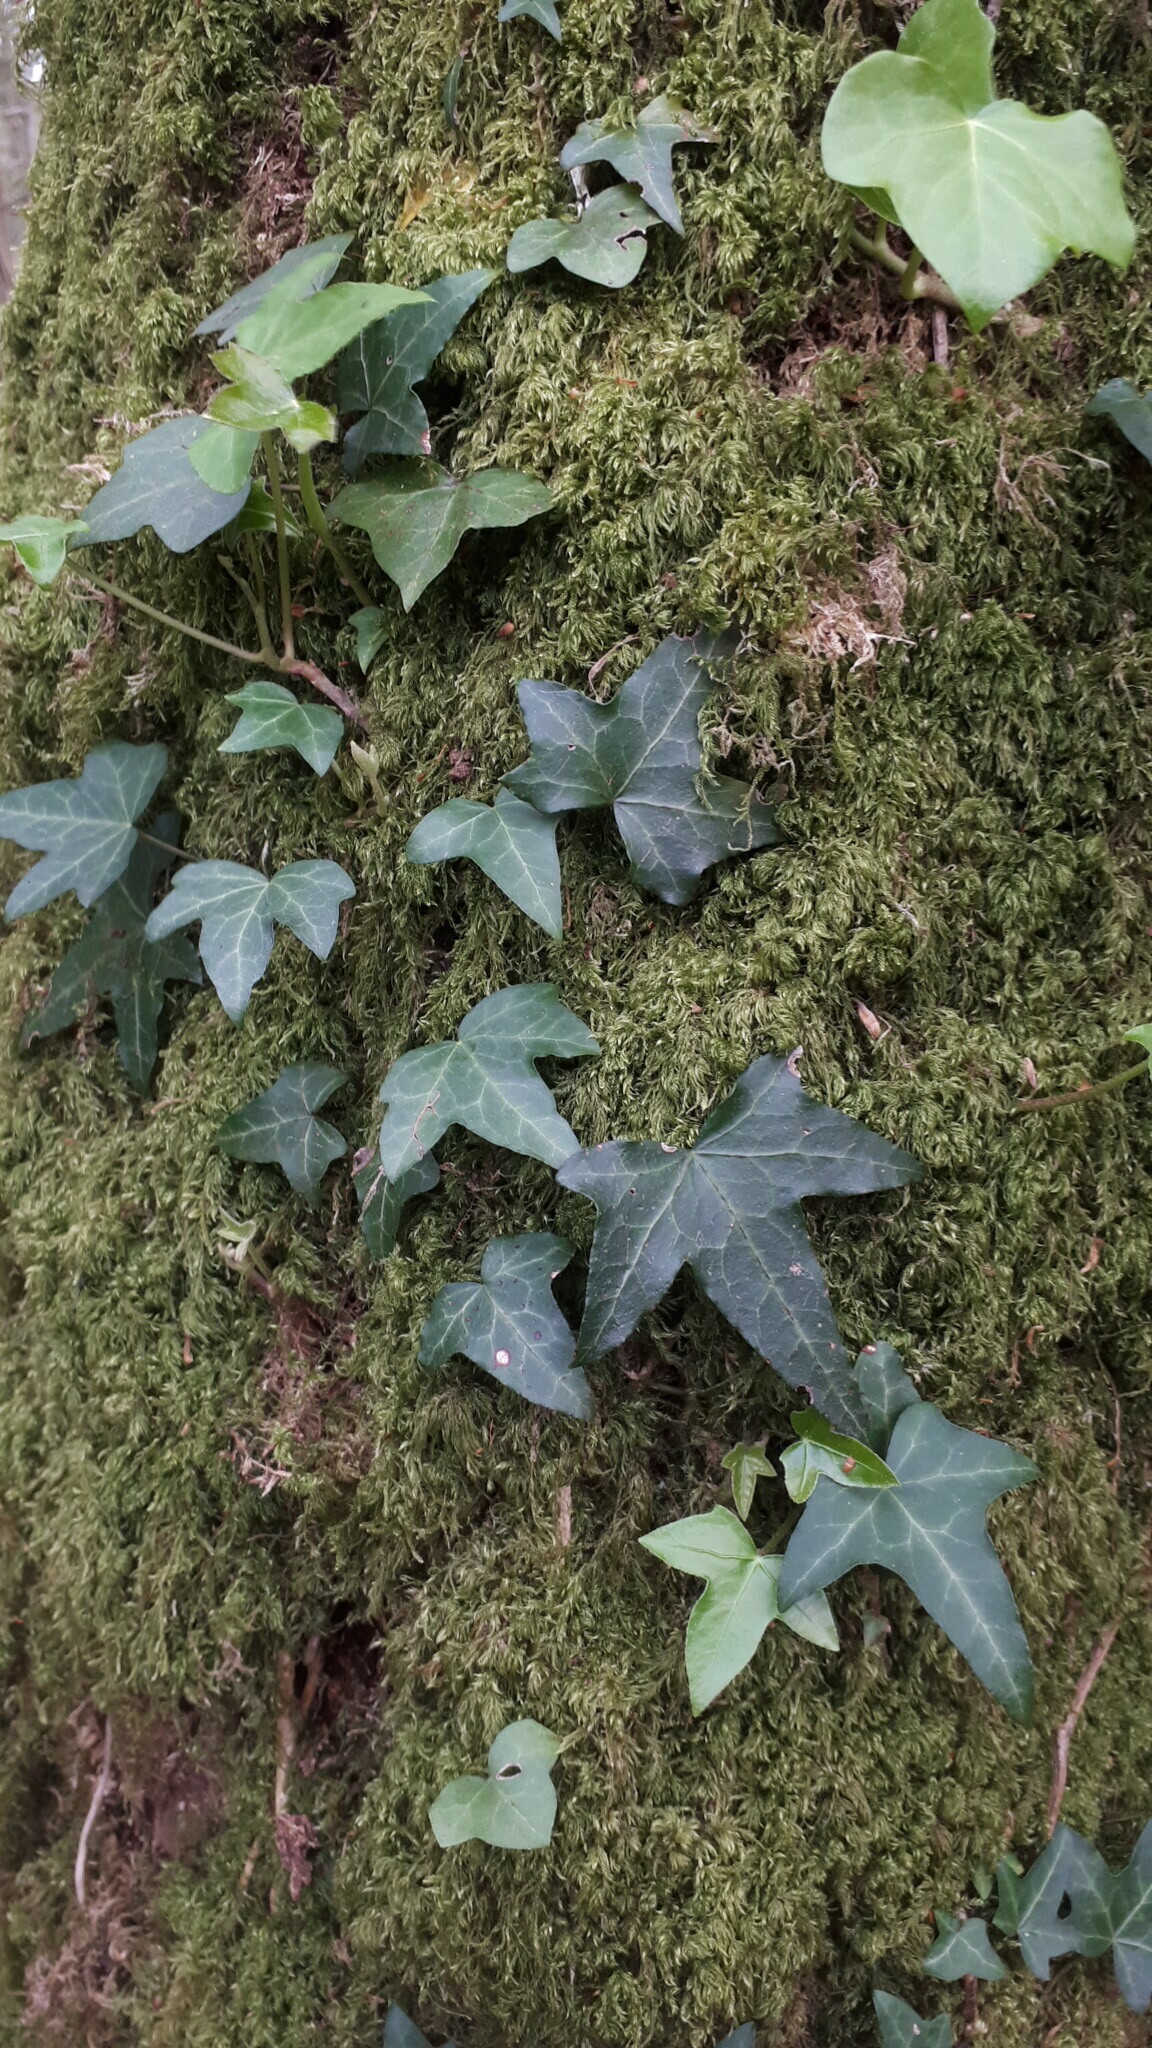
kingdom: Plantae
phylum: Tracheophyta
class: Magnoliopsida
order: Apiales
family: Araliaceae
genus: Hedera
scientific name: Hedera helix
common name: Ivy
